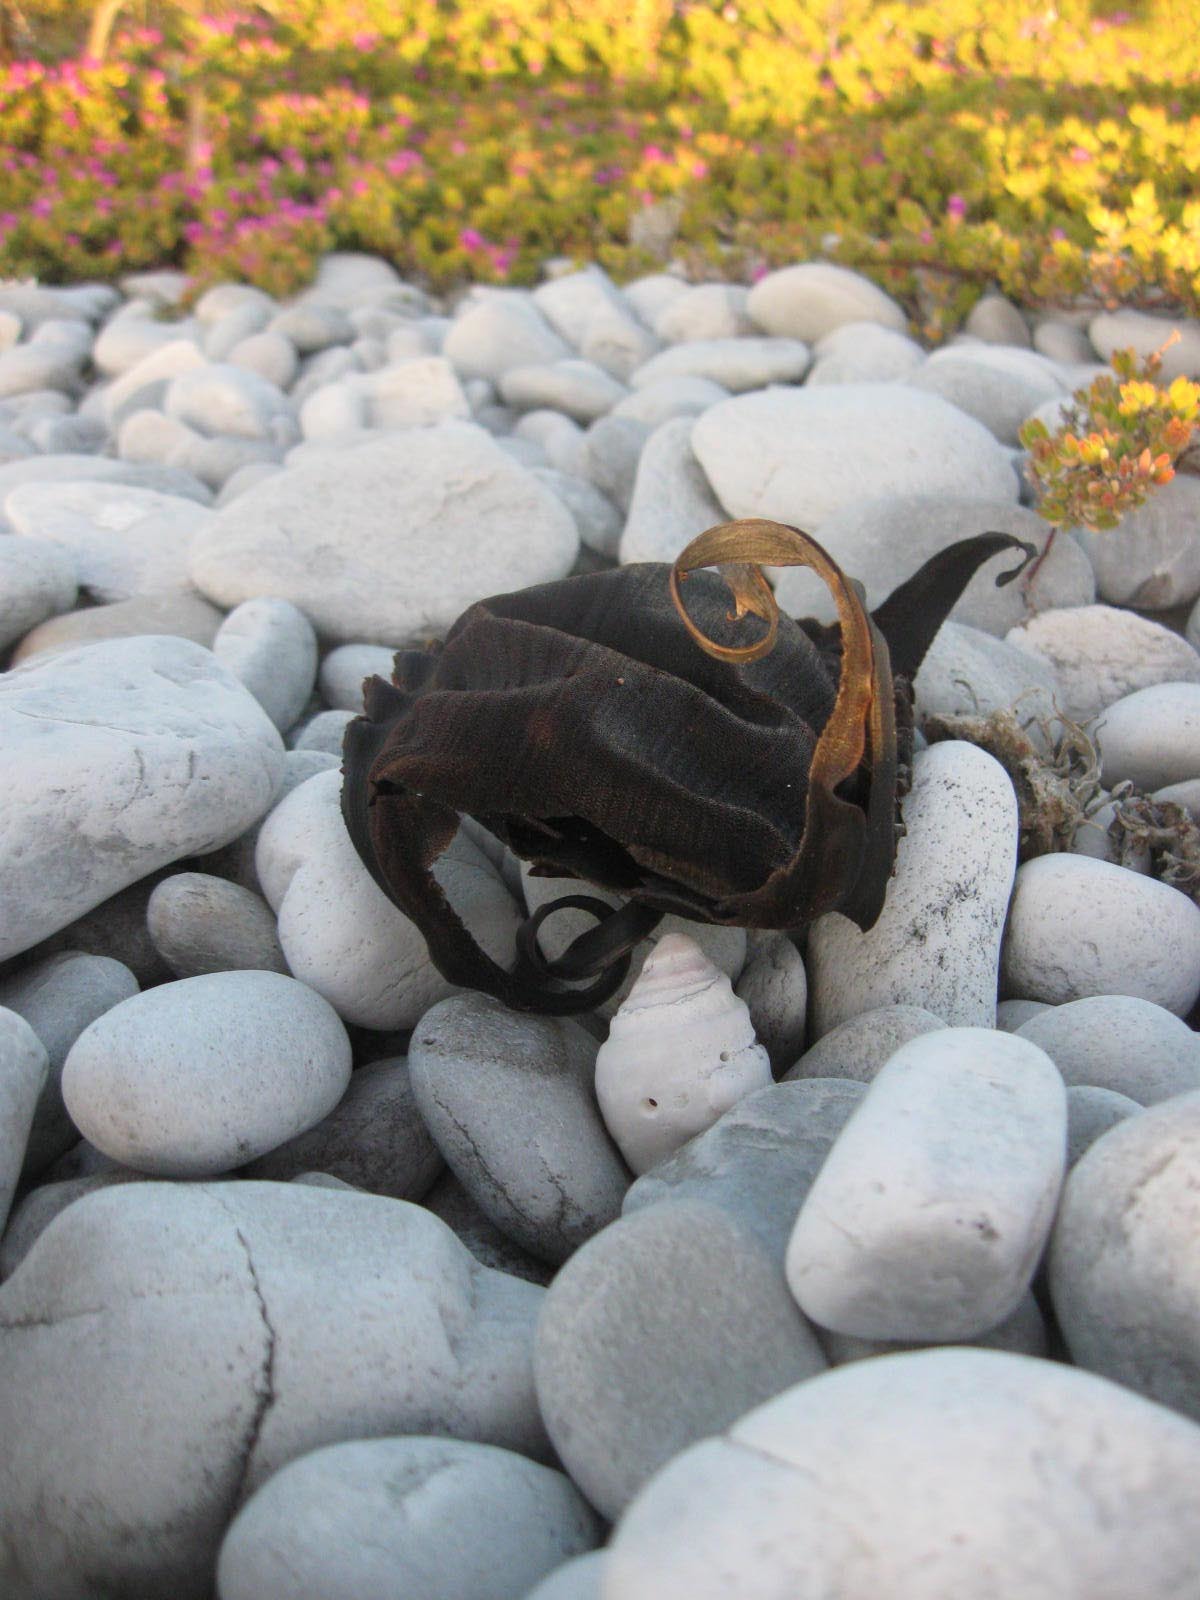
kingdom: Animalia
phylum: Chordata
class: Elasmobranchii
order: Rajiformes
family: Rajidae
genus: Rostroraja
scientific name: Rostroraja alba
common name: White skate
